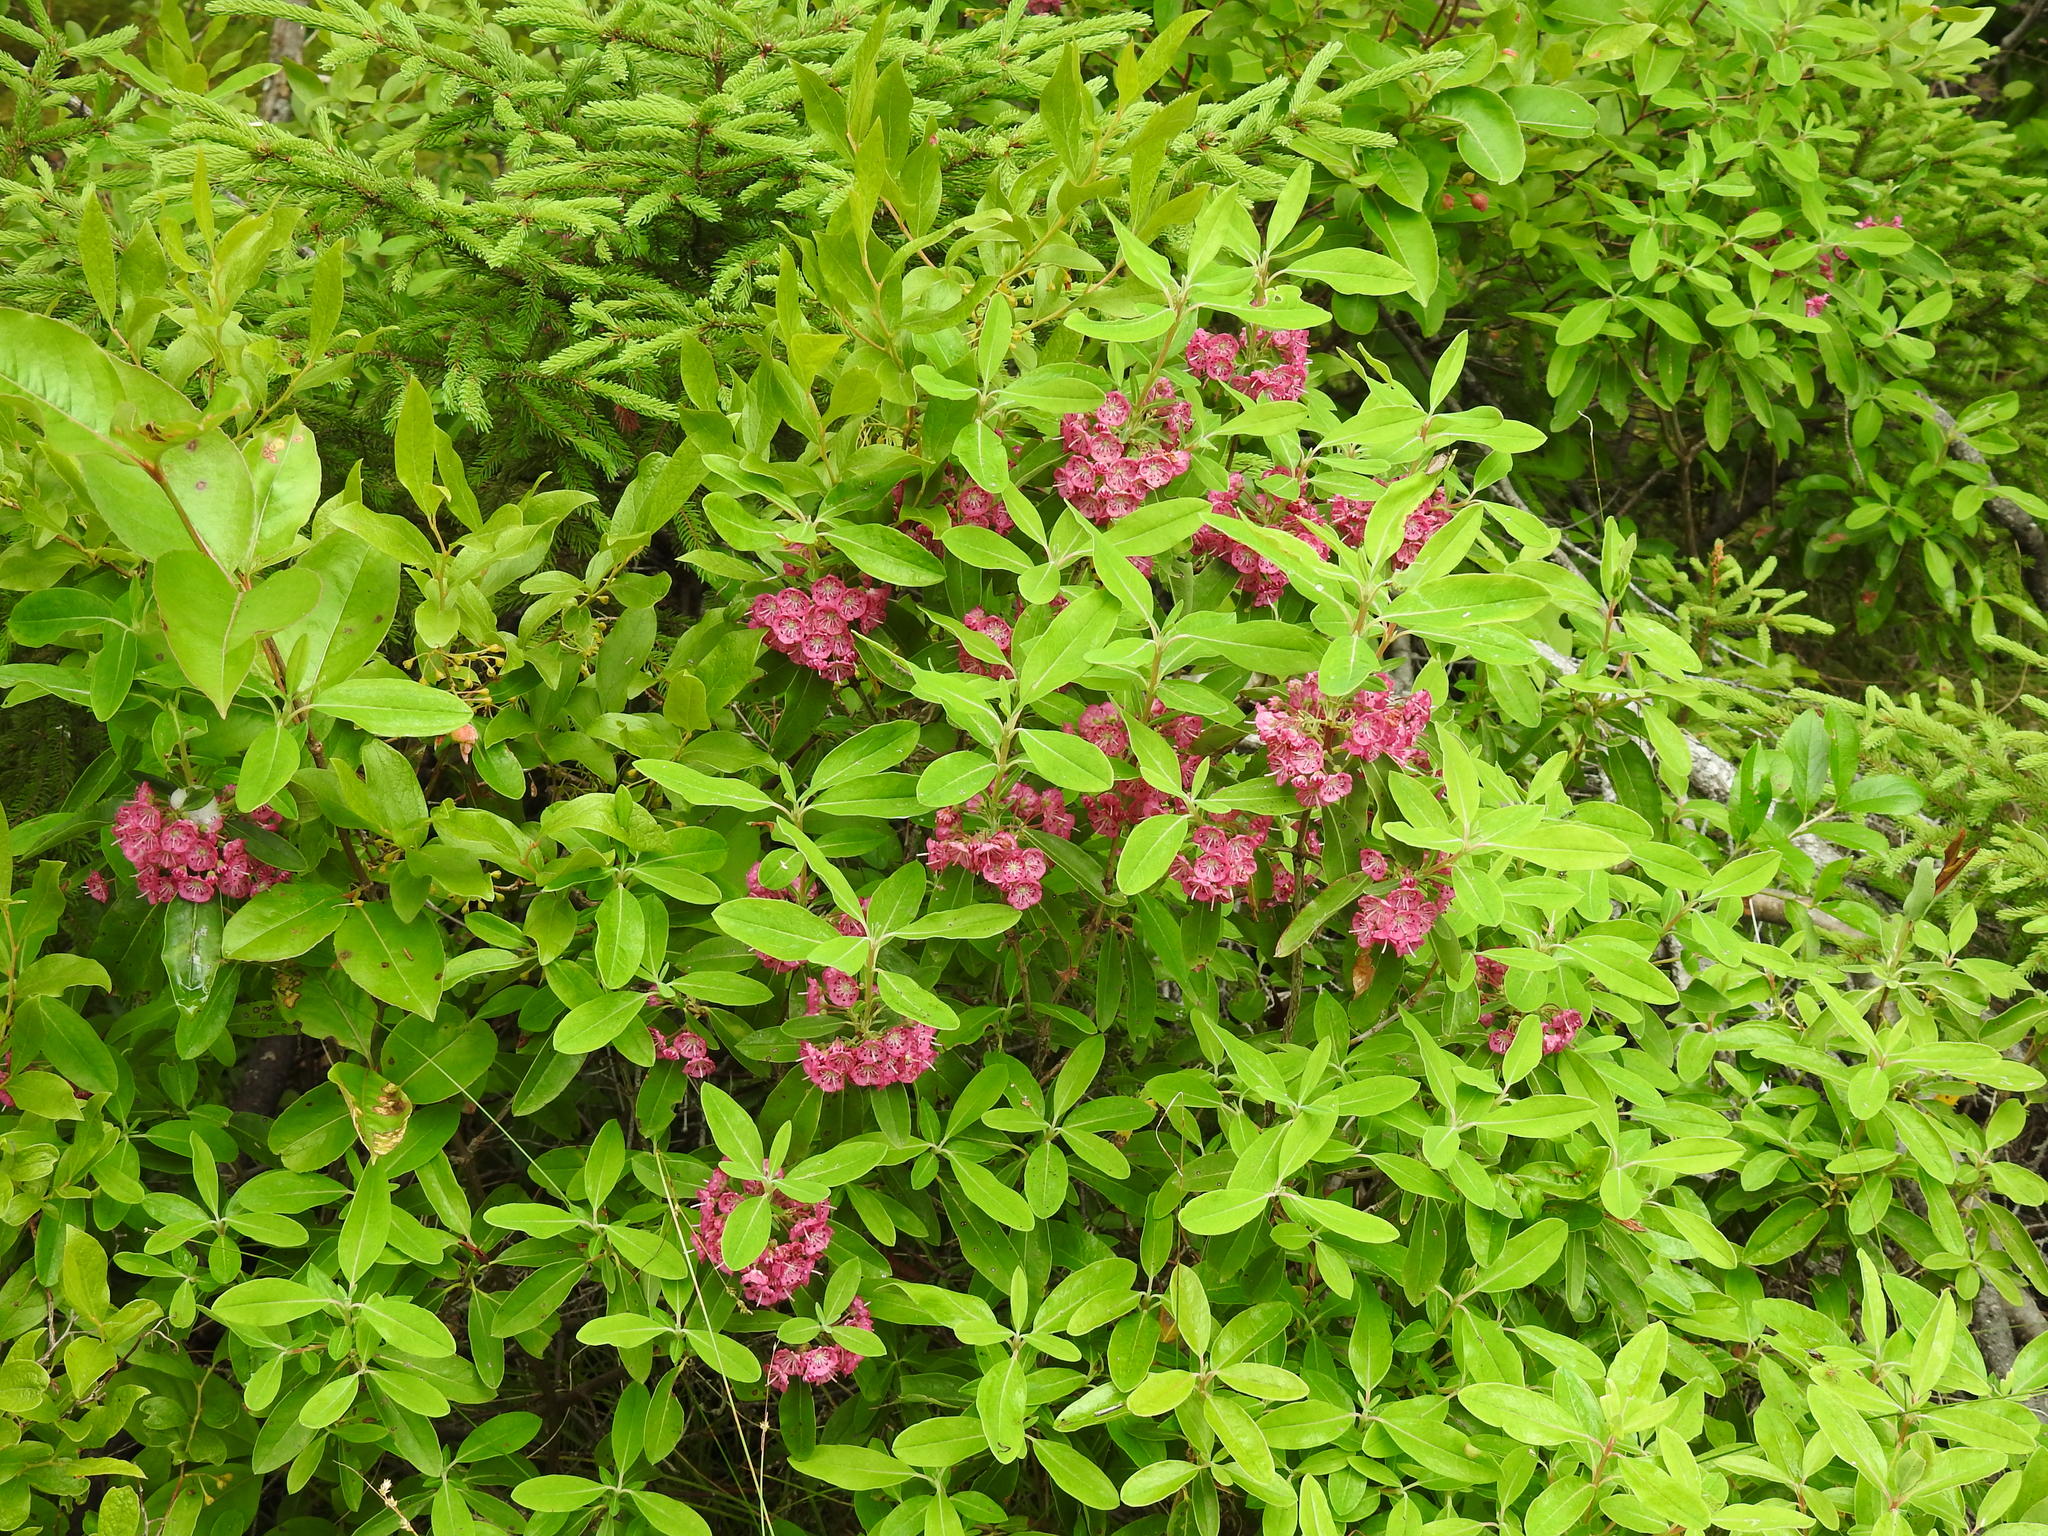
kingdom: Plantae
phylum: Tracheophyta
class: Magnoliopsida
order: Ericales
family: Ericaceae
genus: Kalmia
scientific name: Kalmia angustifolia
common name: Sheep-laurel
